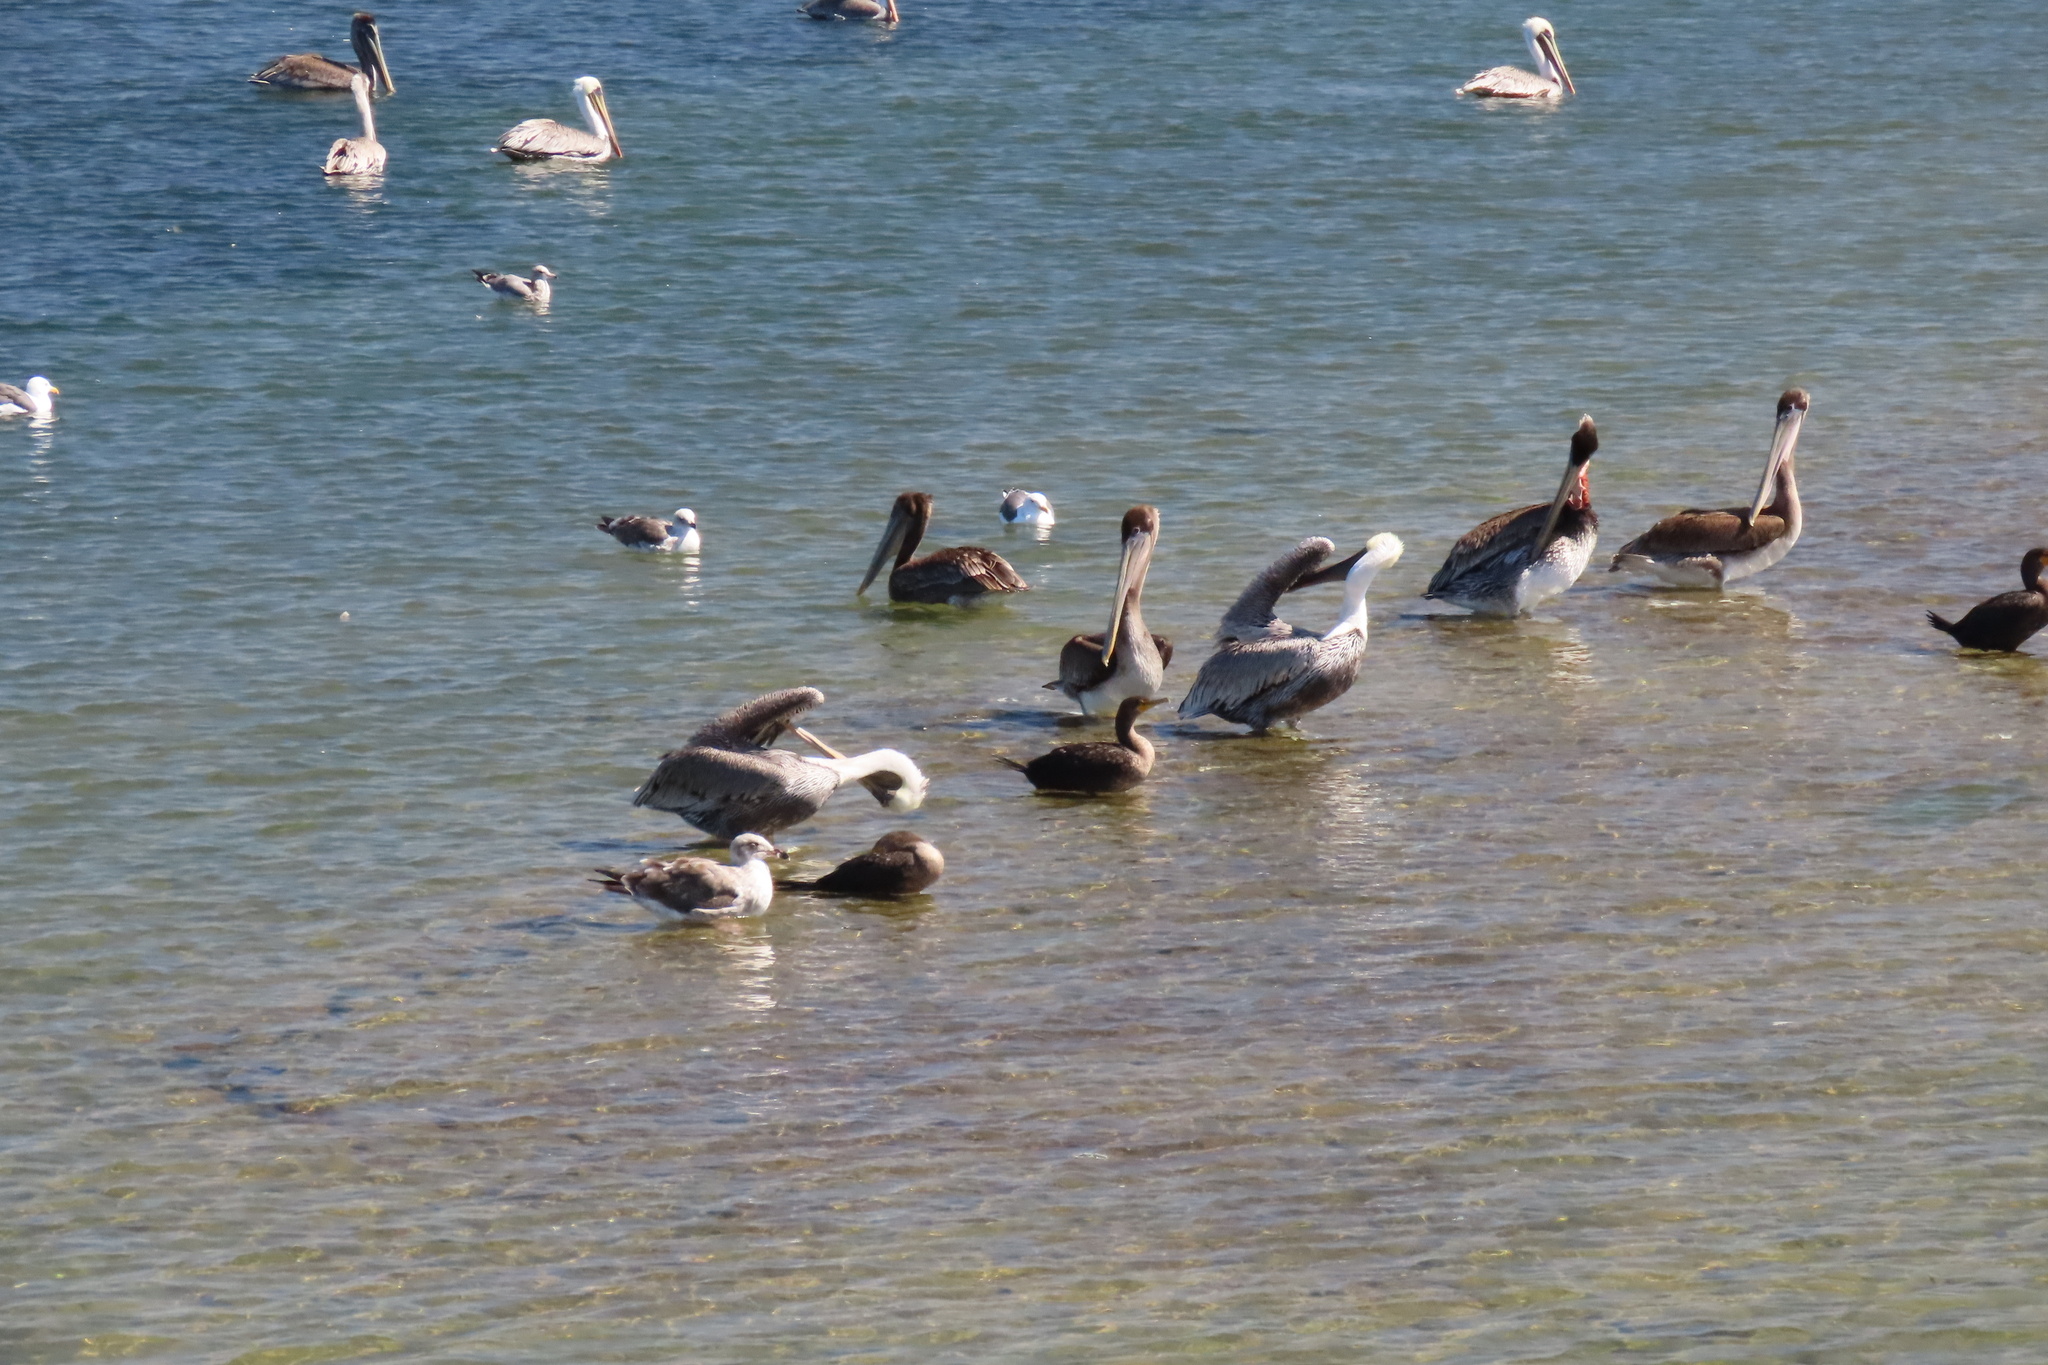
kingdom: Animalia
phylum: Chordata
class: Aves
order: Pelecaniformes
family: Pelecanidae
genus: Pelecanus
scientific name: Pelecanus occidentalis
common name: Brown pelican
